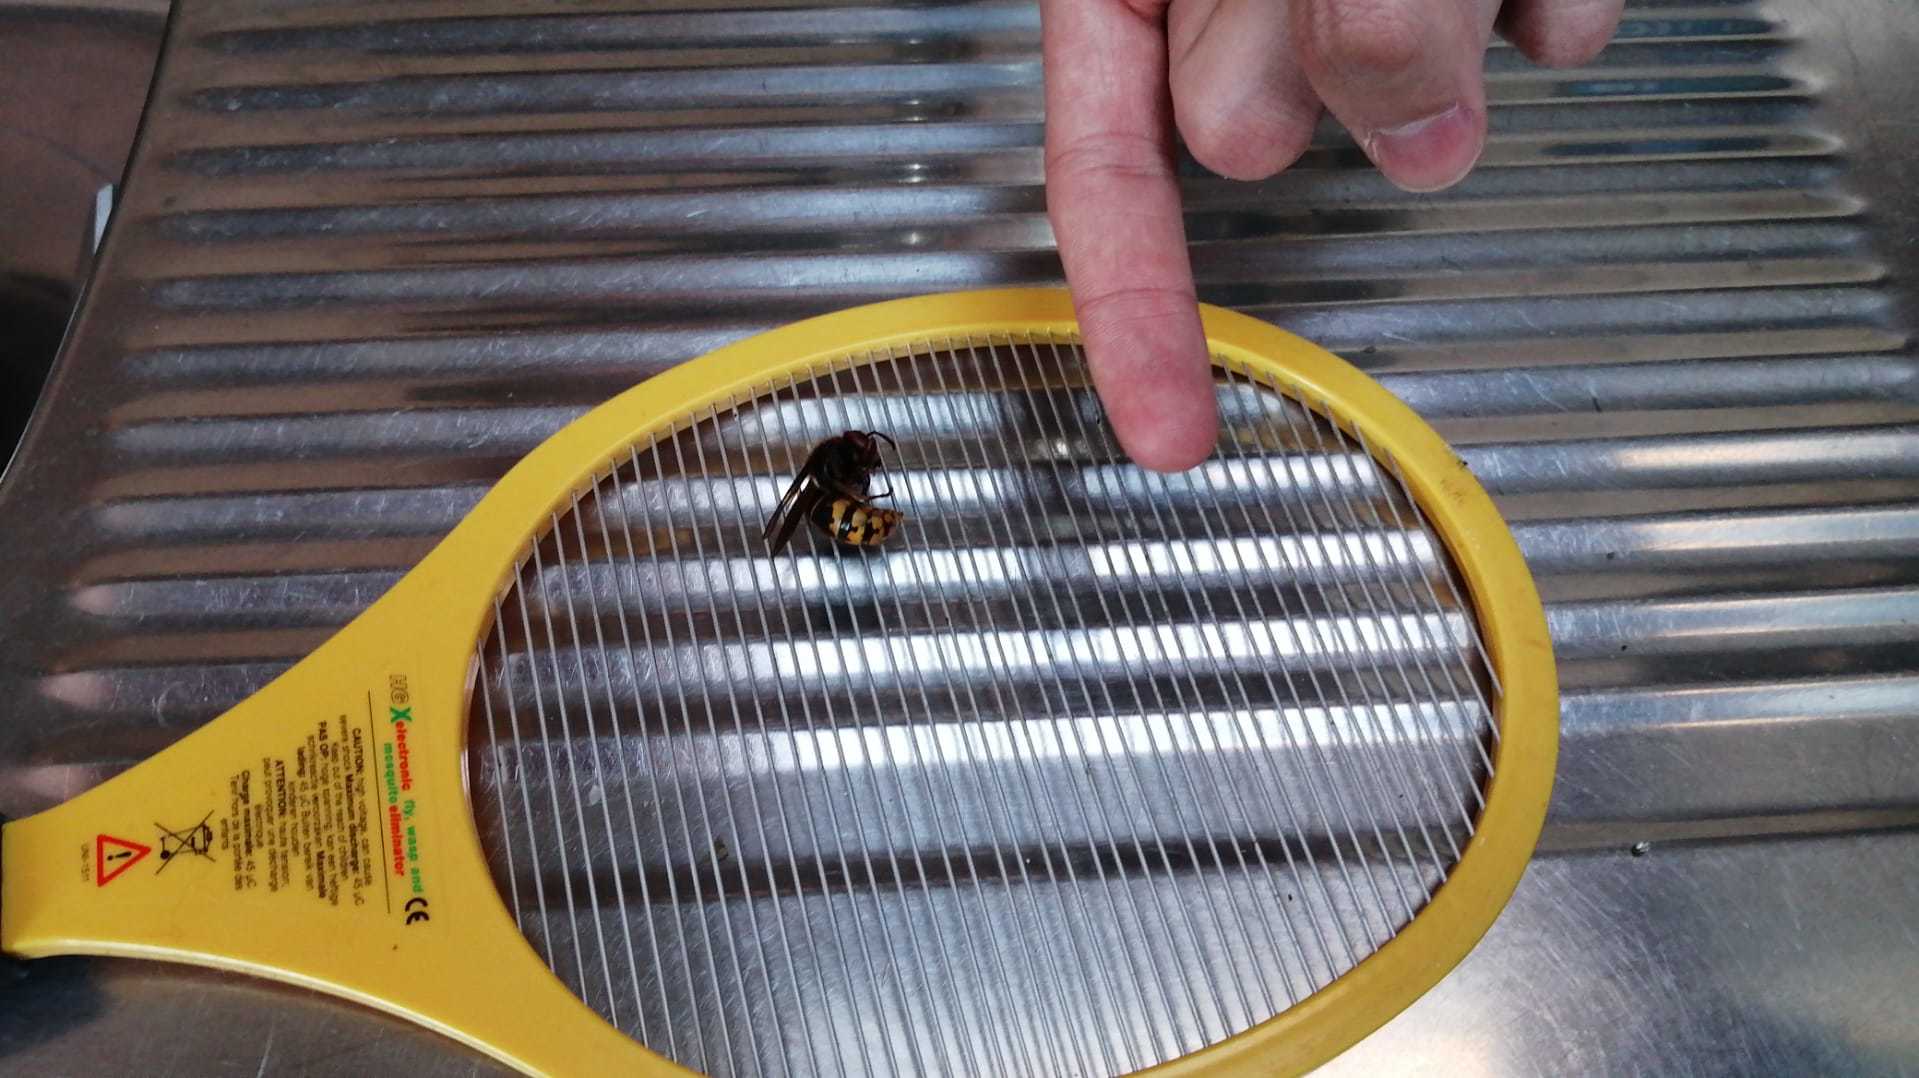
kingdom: Animalia
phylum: Arthropoda
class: Insecta
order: Hymenoptera
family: Vespidae
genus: Vespa
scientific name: Vespa crabro
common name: Hornet
